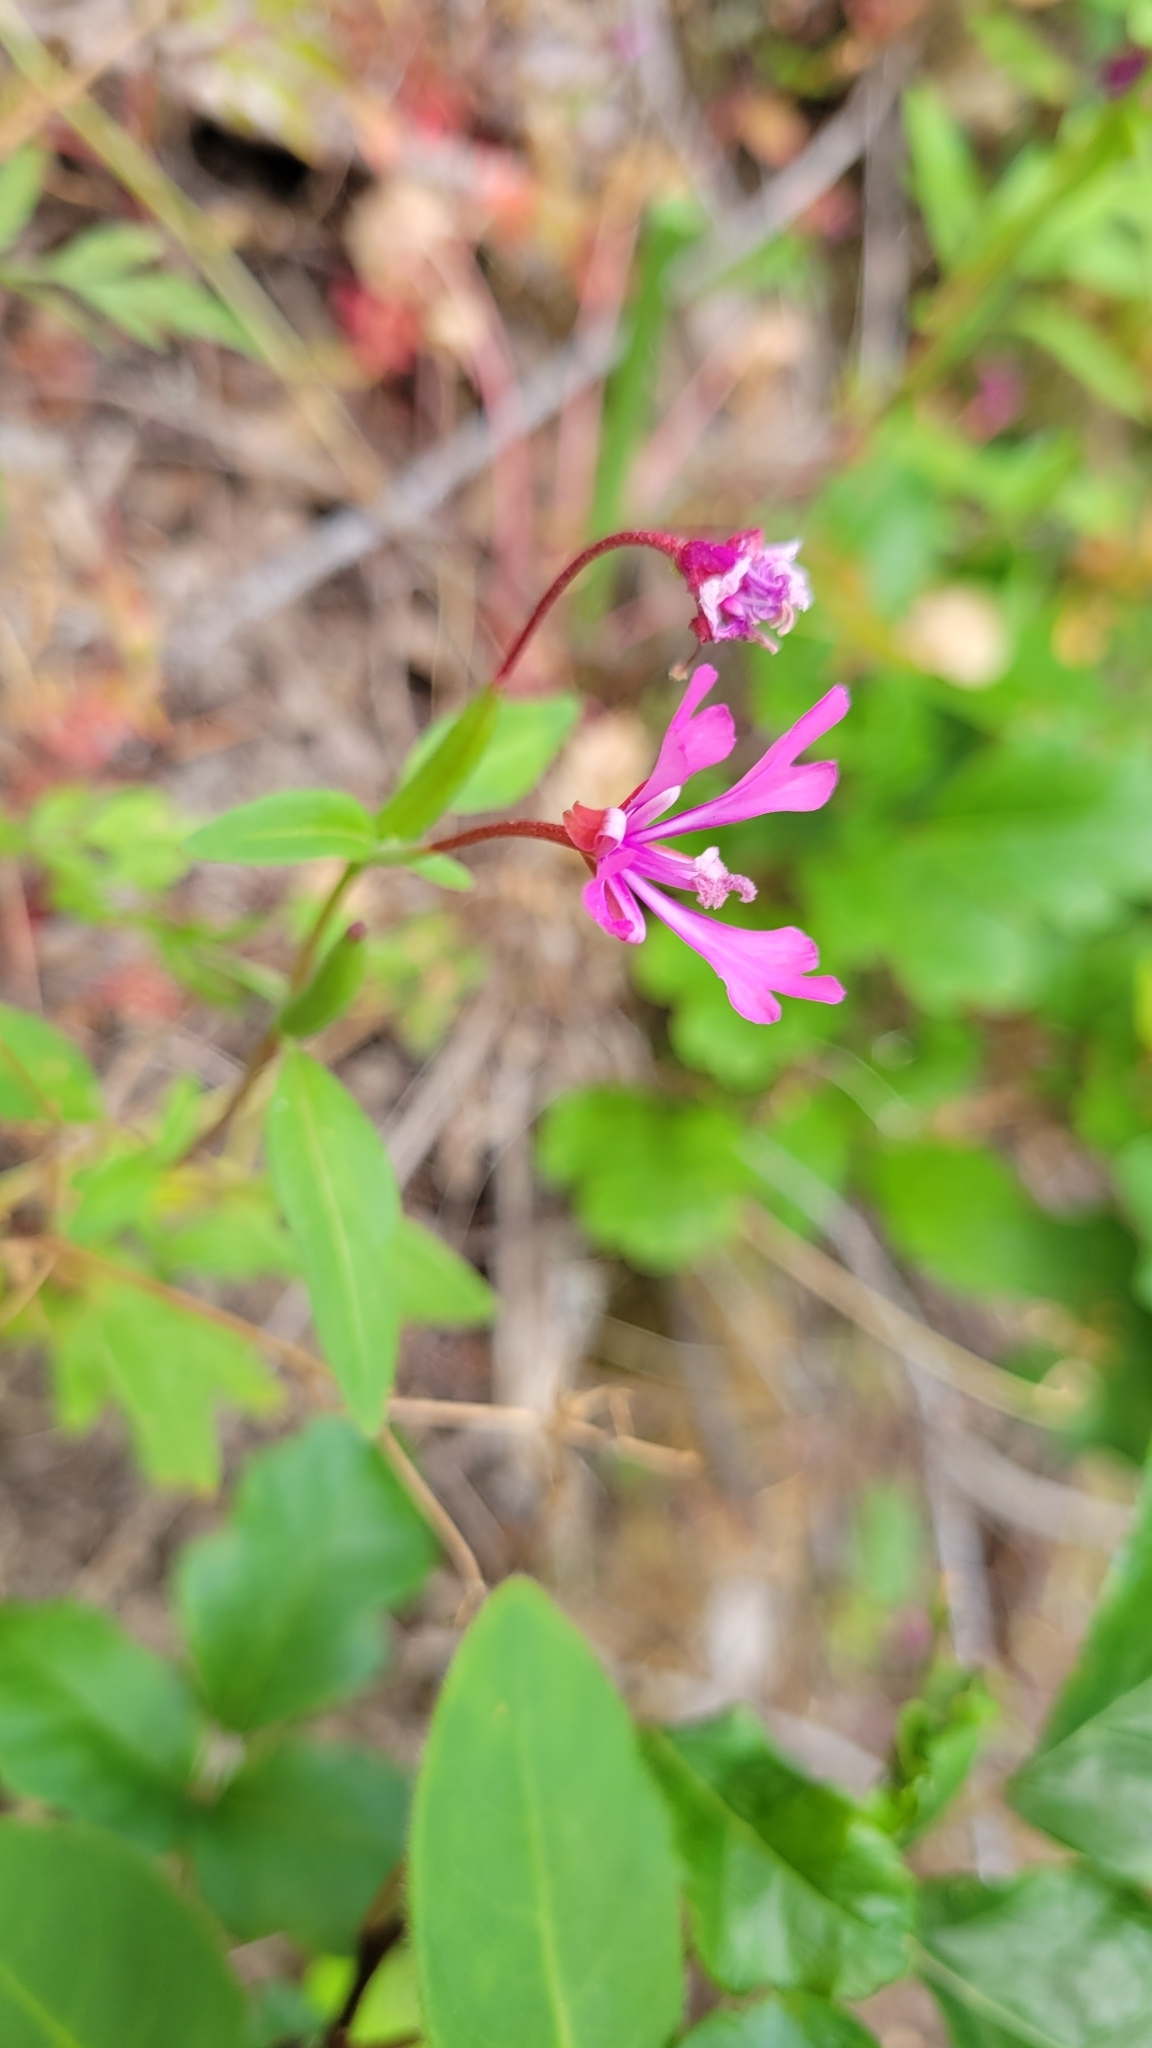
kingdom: Plantae
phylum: Tracheophyta
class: Magnoliopsida
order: Myrtales
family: Onagraceae
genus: Clarkia
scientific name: Clarkia concinna
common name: Red-ribbons
